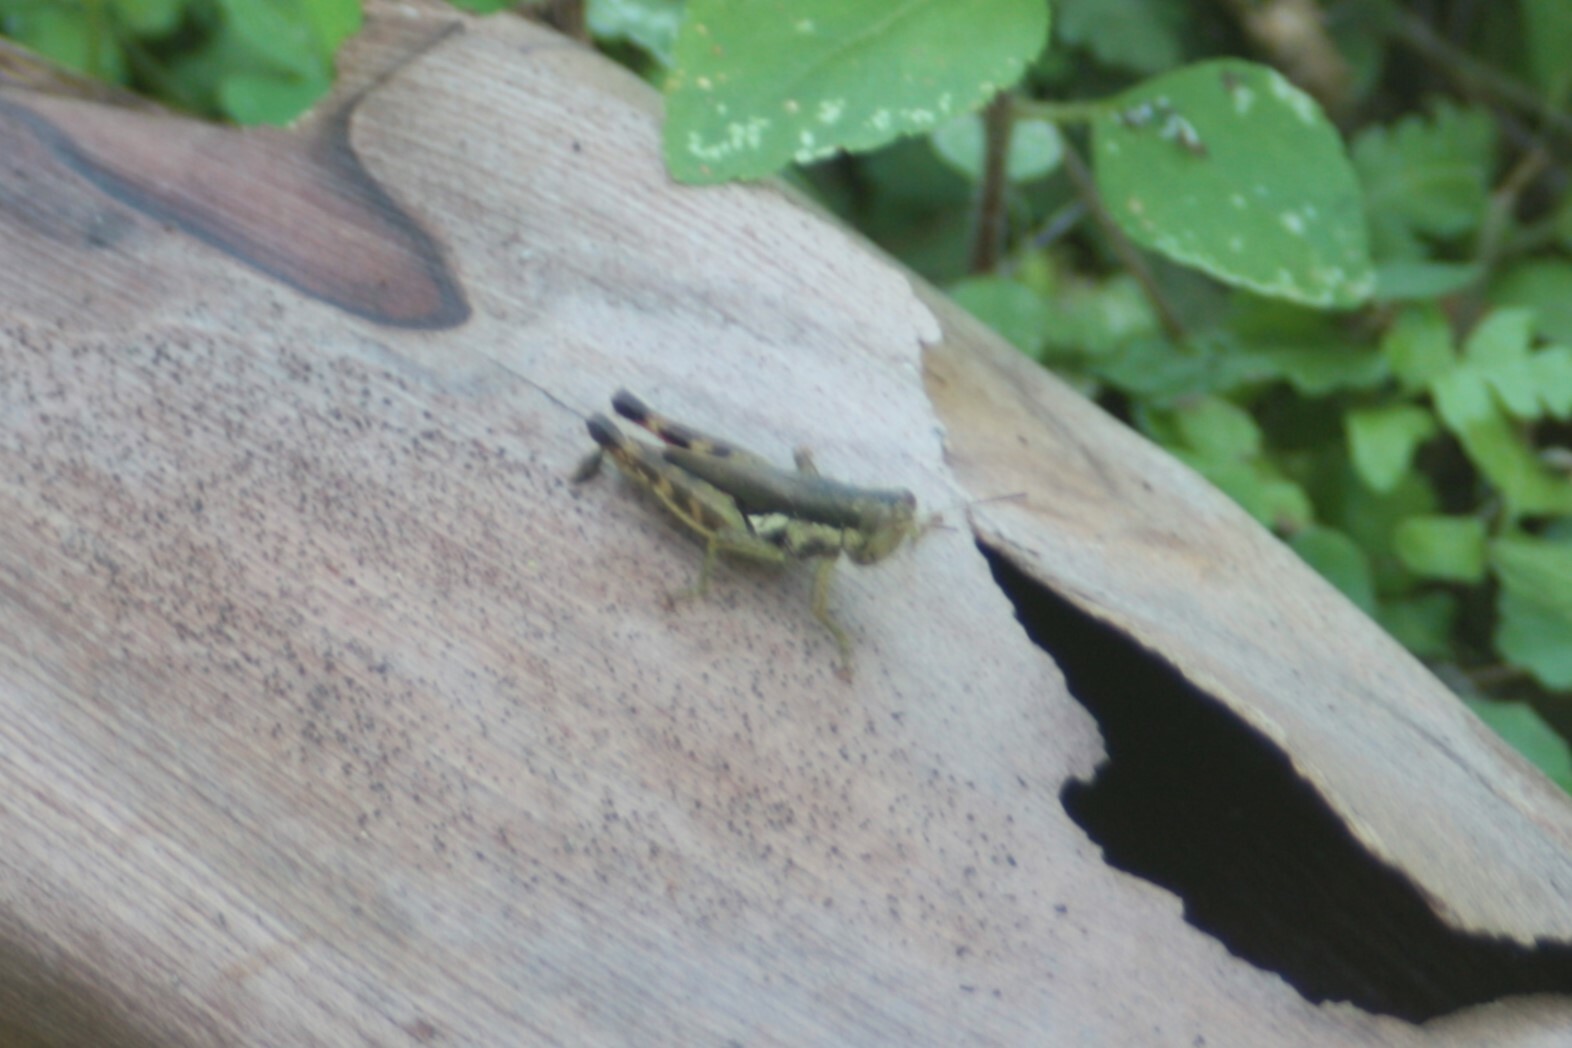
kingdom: Animalia
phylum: Arthropoda
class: Insecta
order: Orthoptera
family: Acrididae
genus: Pseudoxya
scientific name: Pseudoxya diminuta
